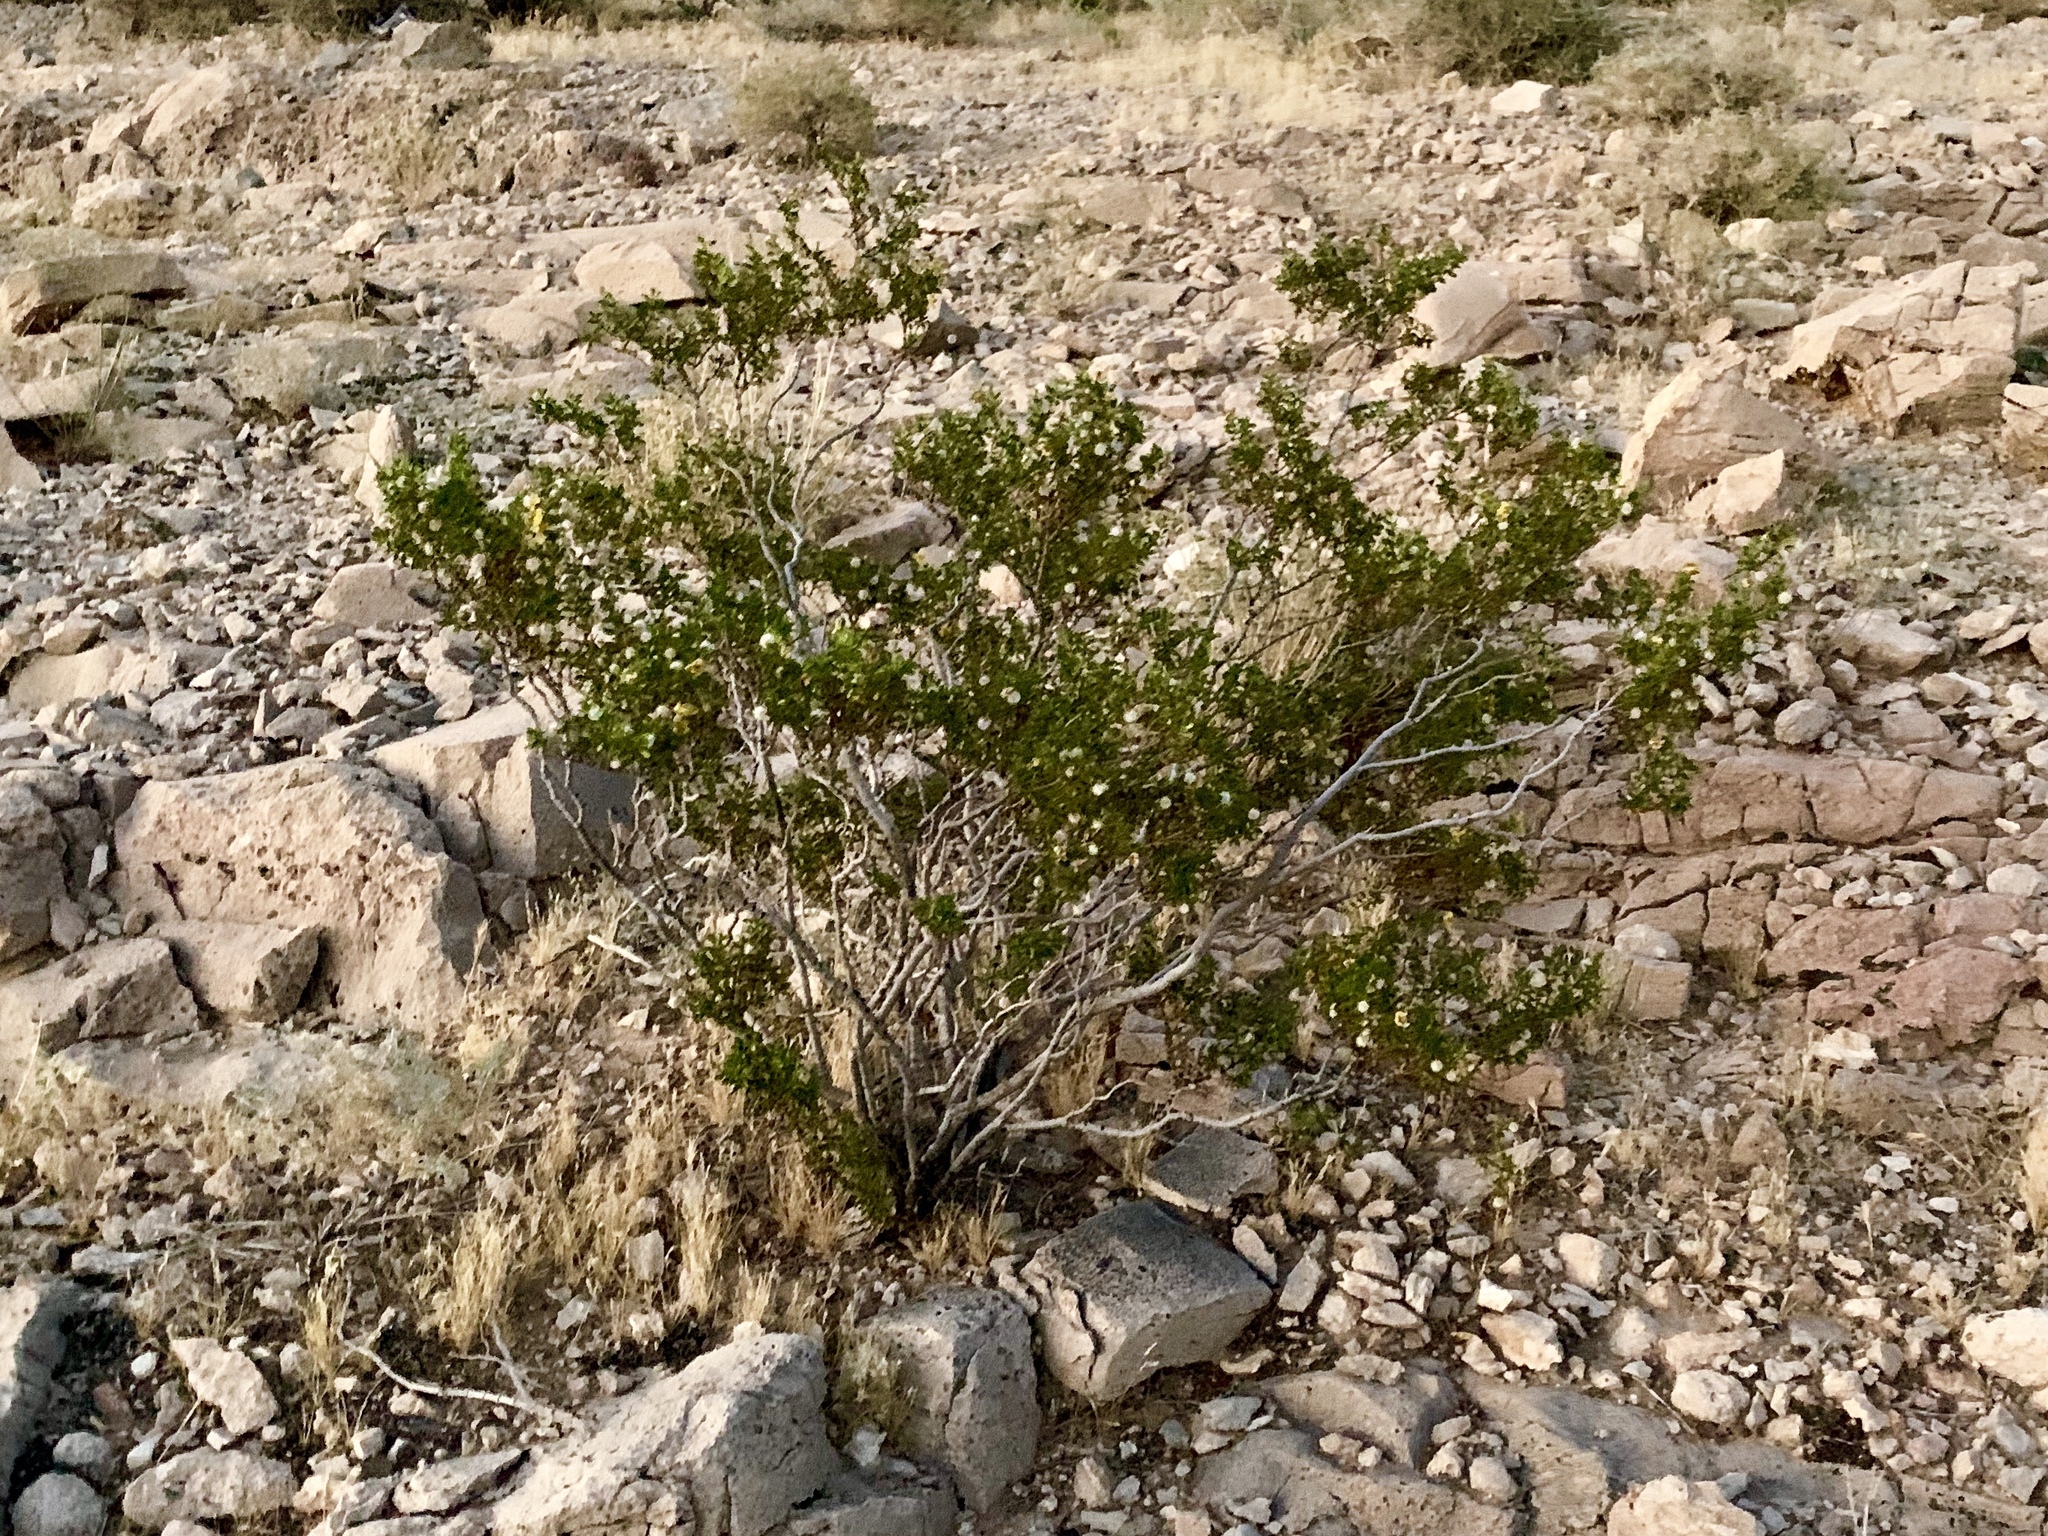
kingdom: Plantae
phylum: Tracheophyta
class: Magnoliopsida
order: Zygophyllales
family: Zygophyllaceae
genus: Larrea
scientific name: Larrea tridentata
